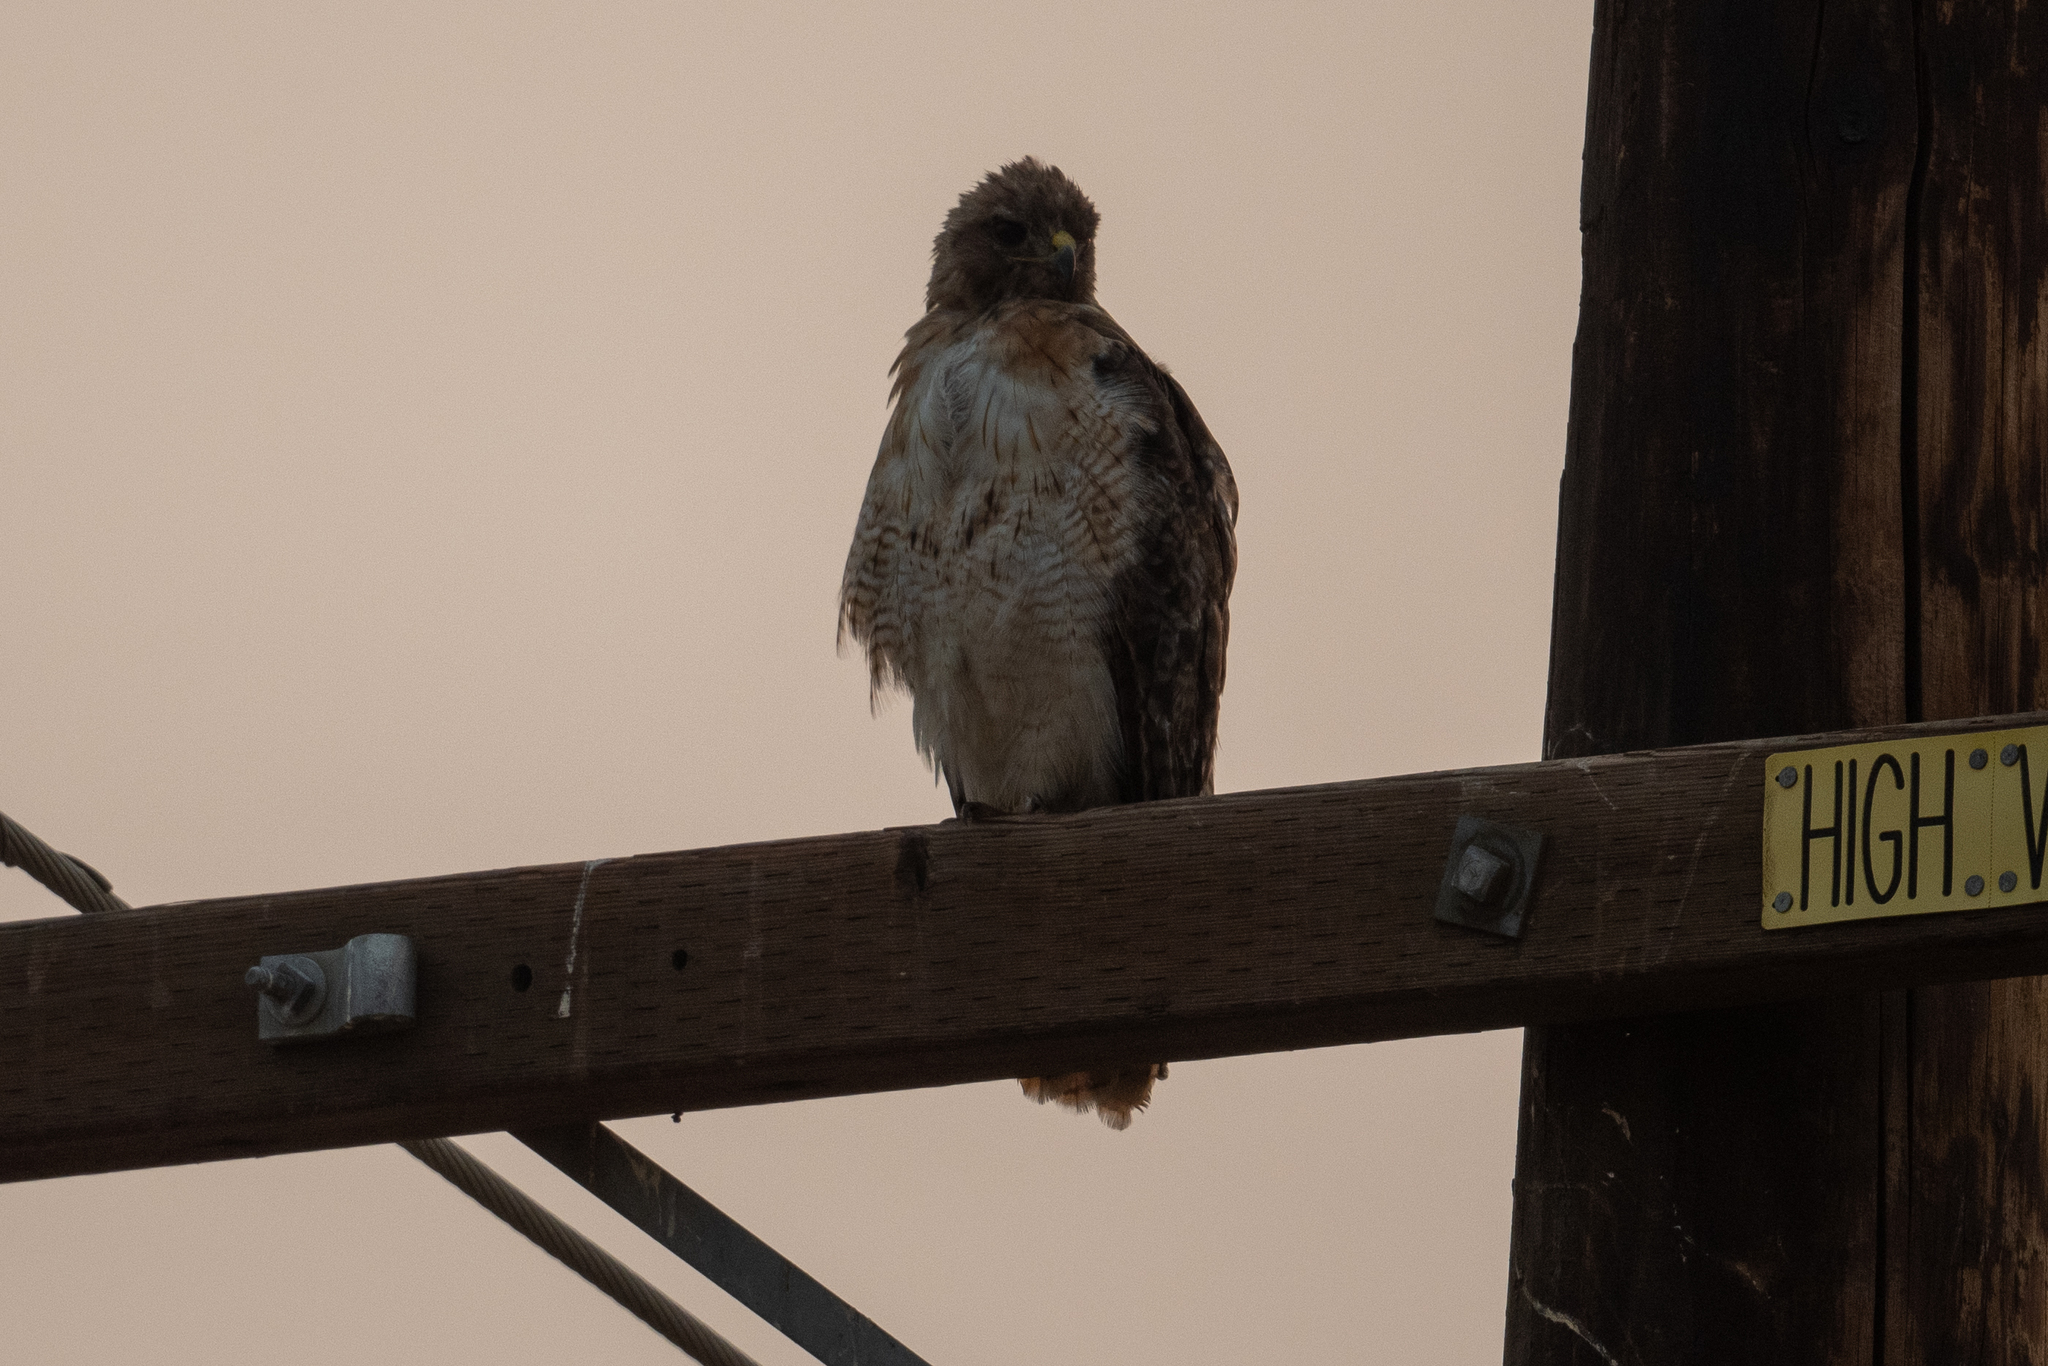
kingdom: Animalia
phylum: Chordata
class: Aves
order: Accipitriformes
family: Accipitridae
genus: Buteo
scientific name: Buteo jamaicensis
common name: Red-tailed hawk
